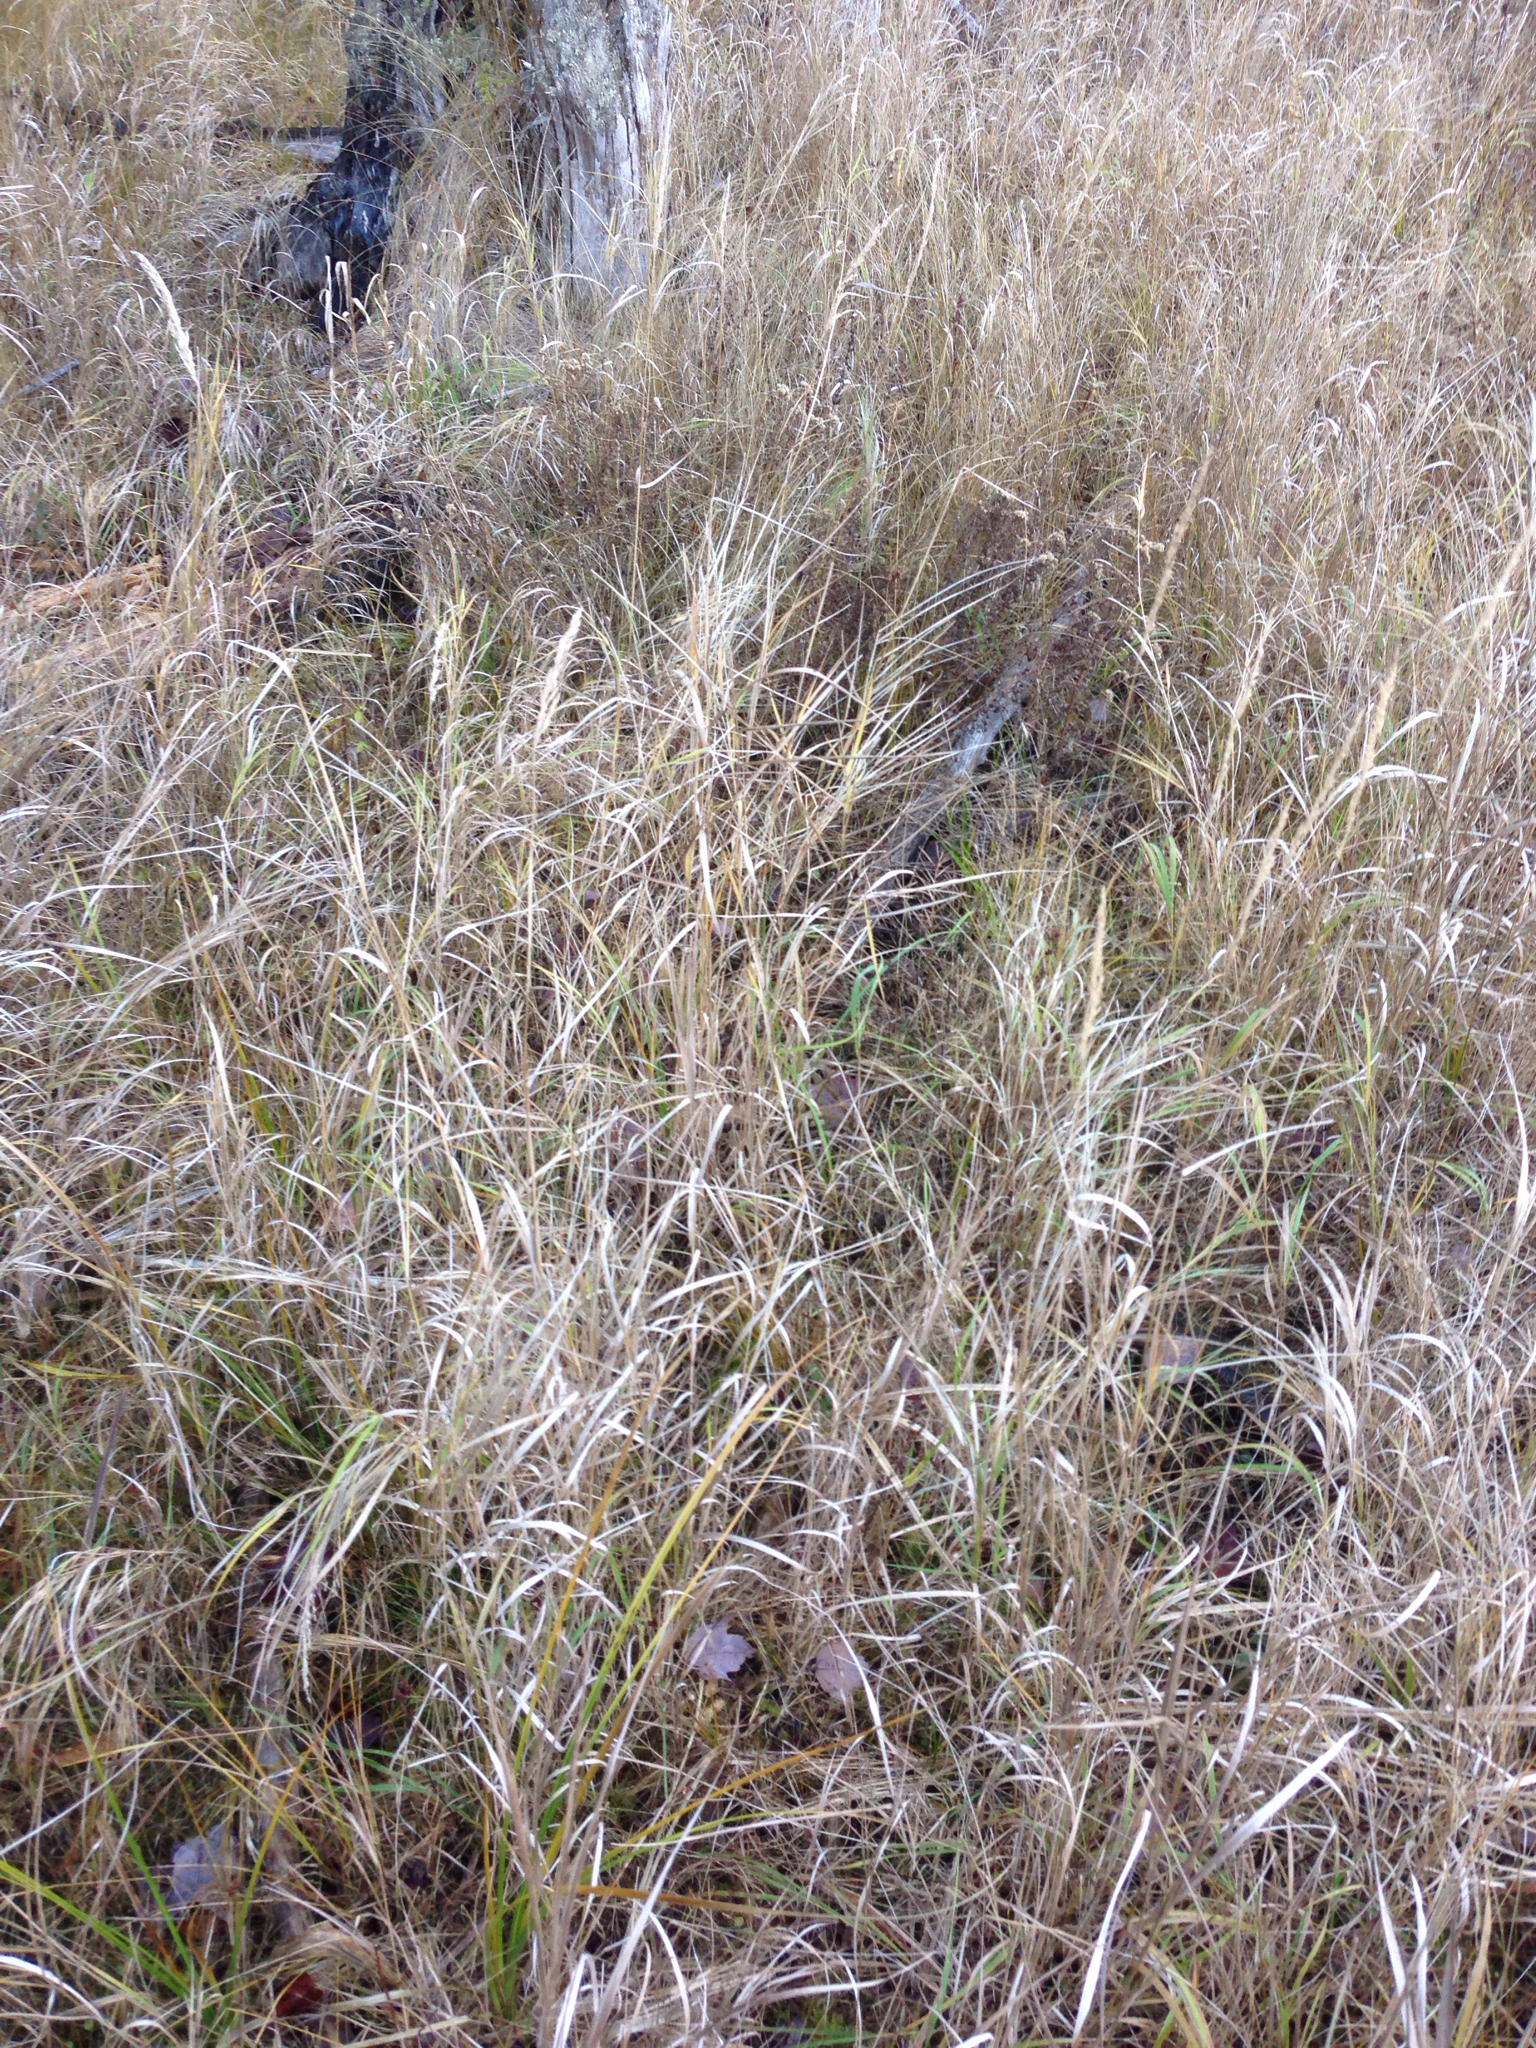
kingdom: Plantae
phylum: Tracheophyta
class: Liliopsida
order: Poales
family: Poaceae
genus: Phalaris
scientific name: Phalaris arundinacea
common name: Reed canary-grass
